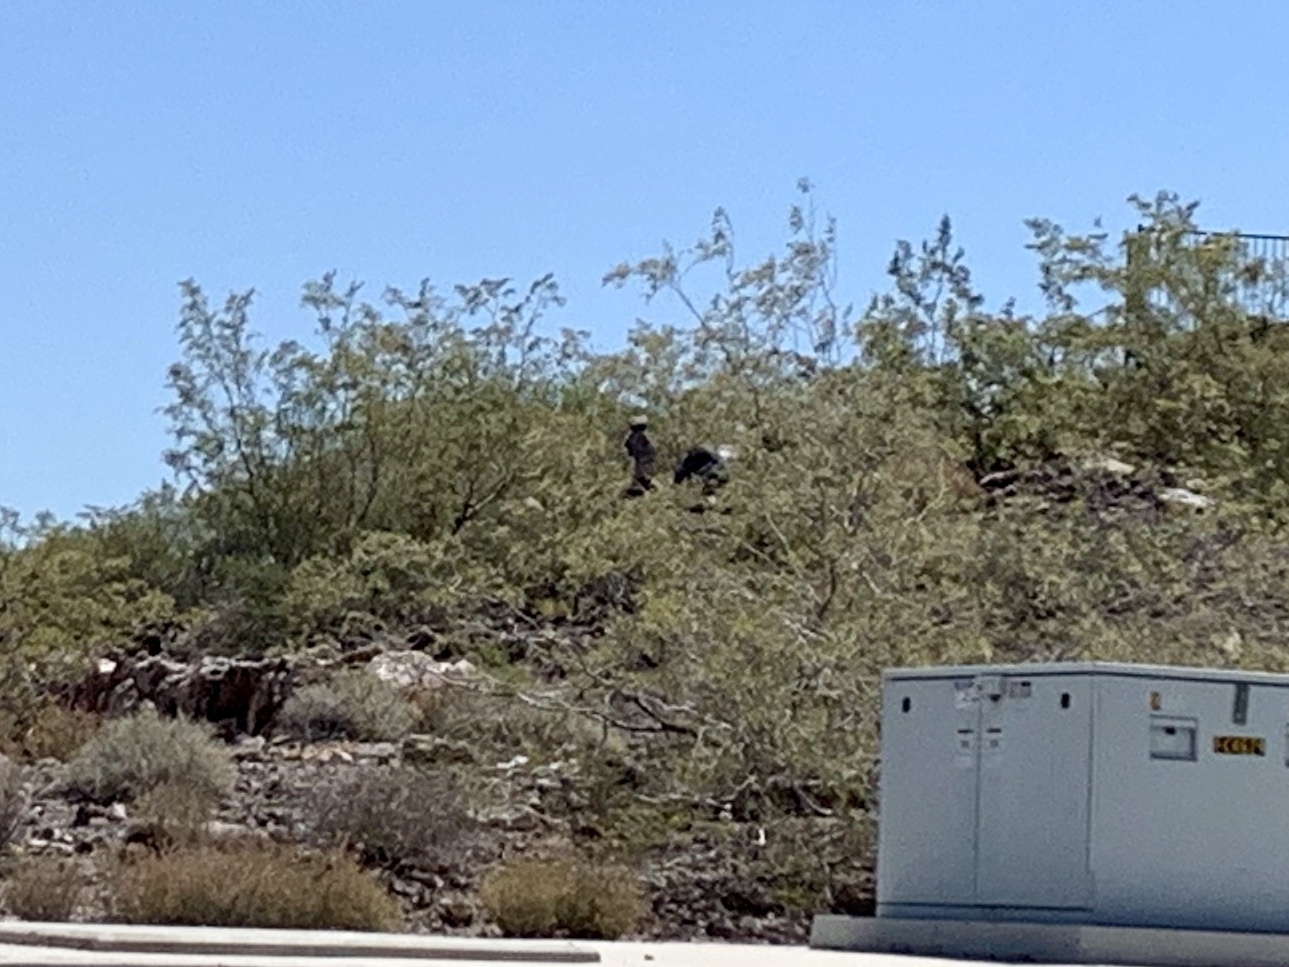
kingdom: Plantae
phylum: Tracheophyta
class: Magnoliopsida
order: Zygophyllales
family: Zygophyllaceae
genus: Larrea
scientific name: Larrea tridentata
